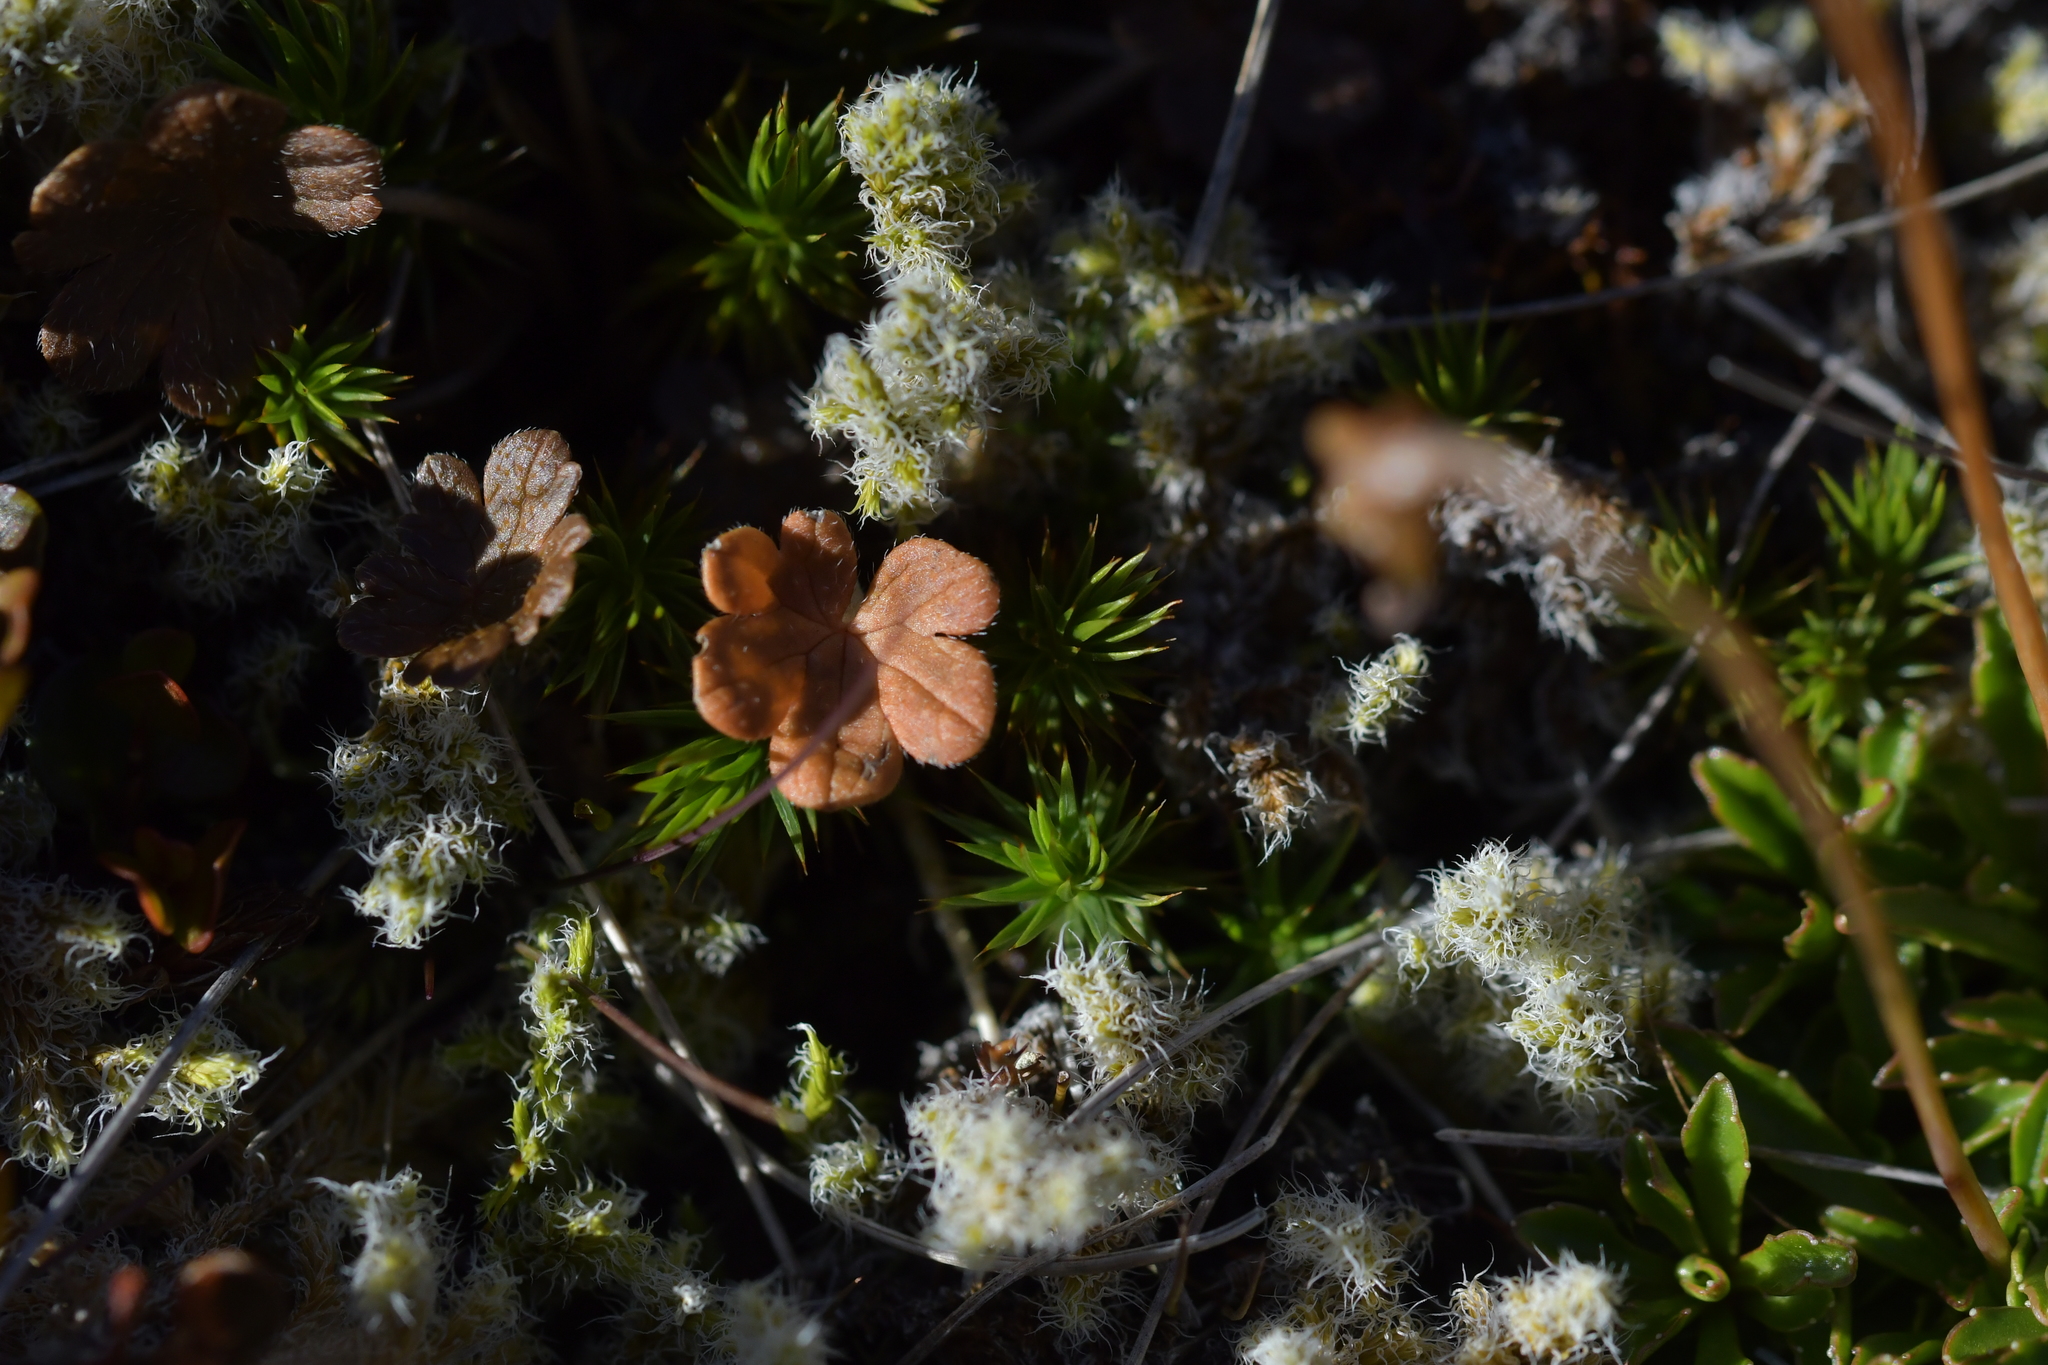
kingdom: Plantae
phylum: Tracheophyta
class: Magnoliopsida
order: Geraniales
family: Geraniaceae
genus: Geranium
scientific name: Geranium brevicaule
